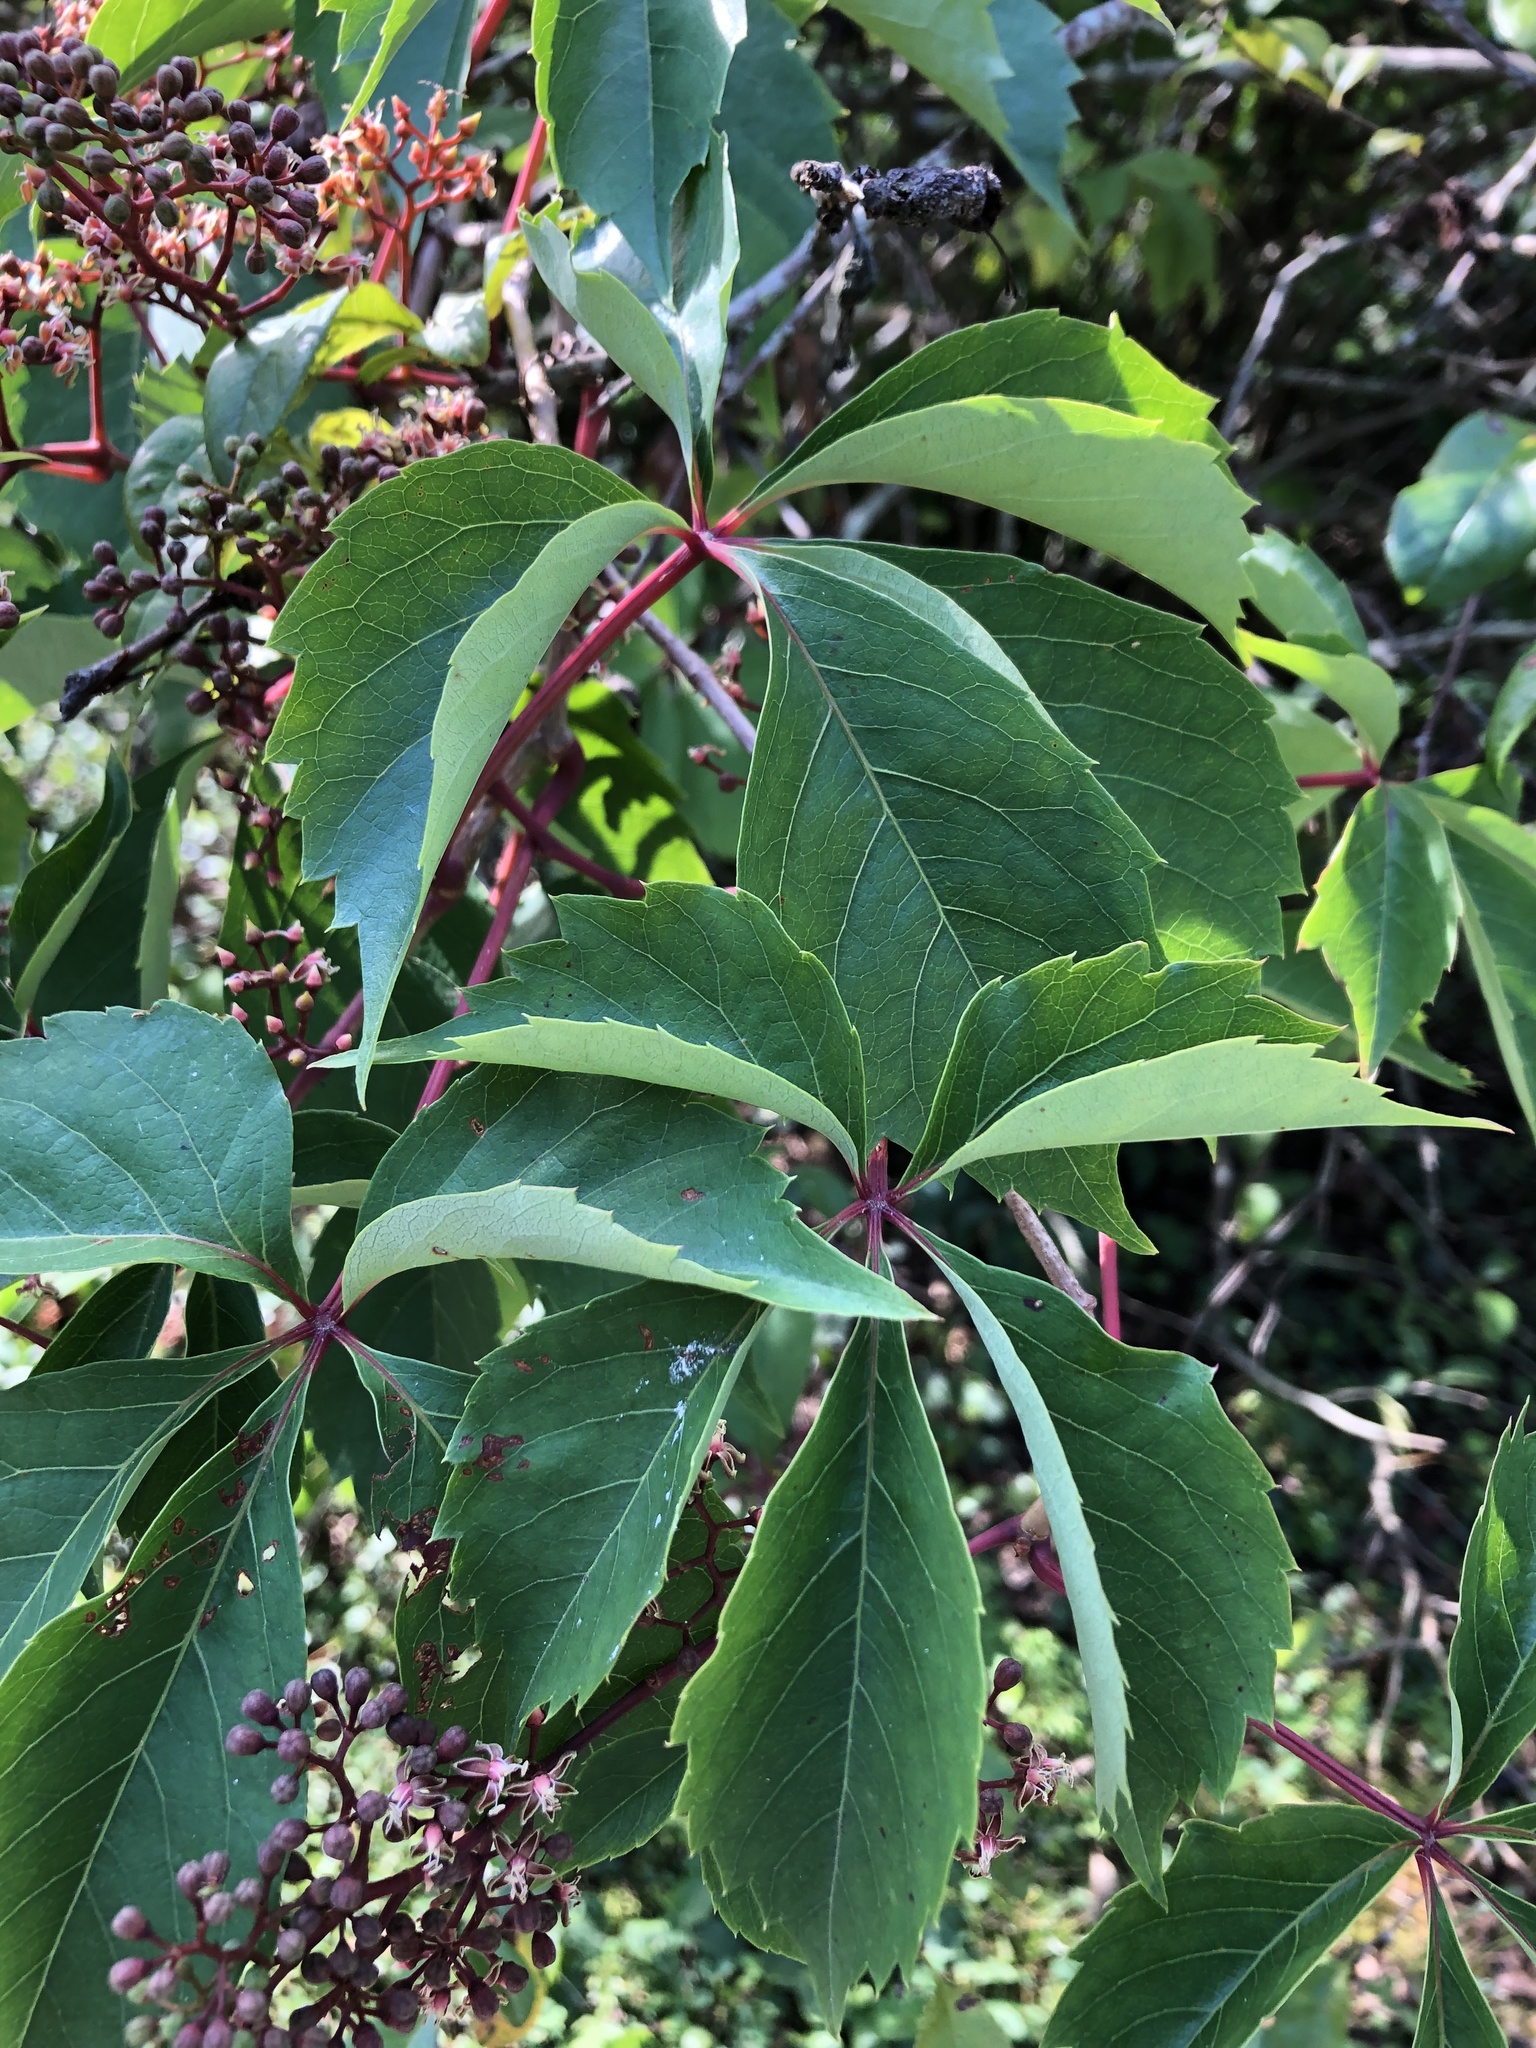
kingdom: Plantae
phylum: Tracheophyta
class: Magnoliopsida
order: Vitales
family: Vitaceae
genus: Parthenocissus
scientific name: Parthenocissus quinquefolia
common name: Virginia-creeper
